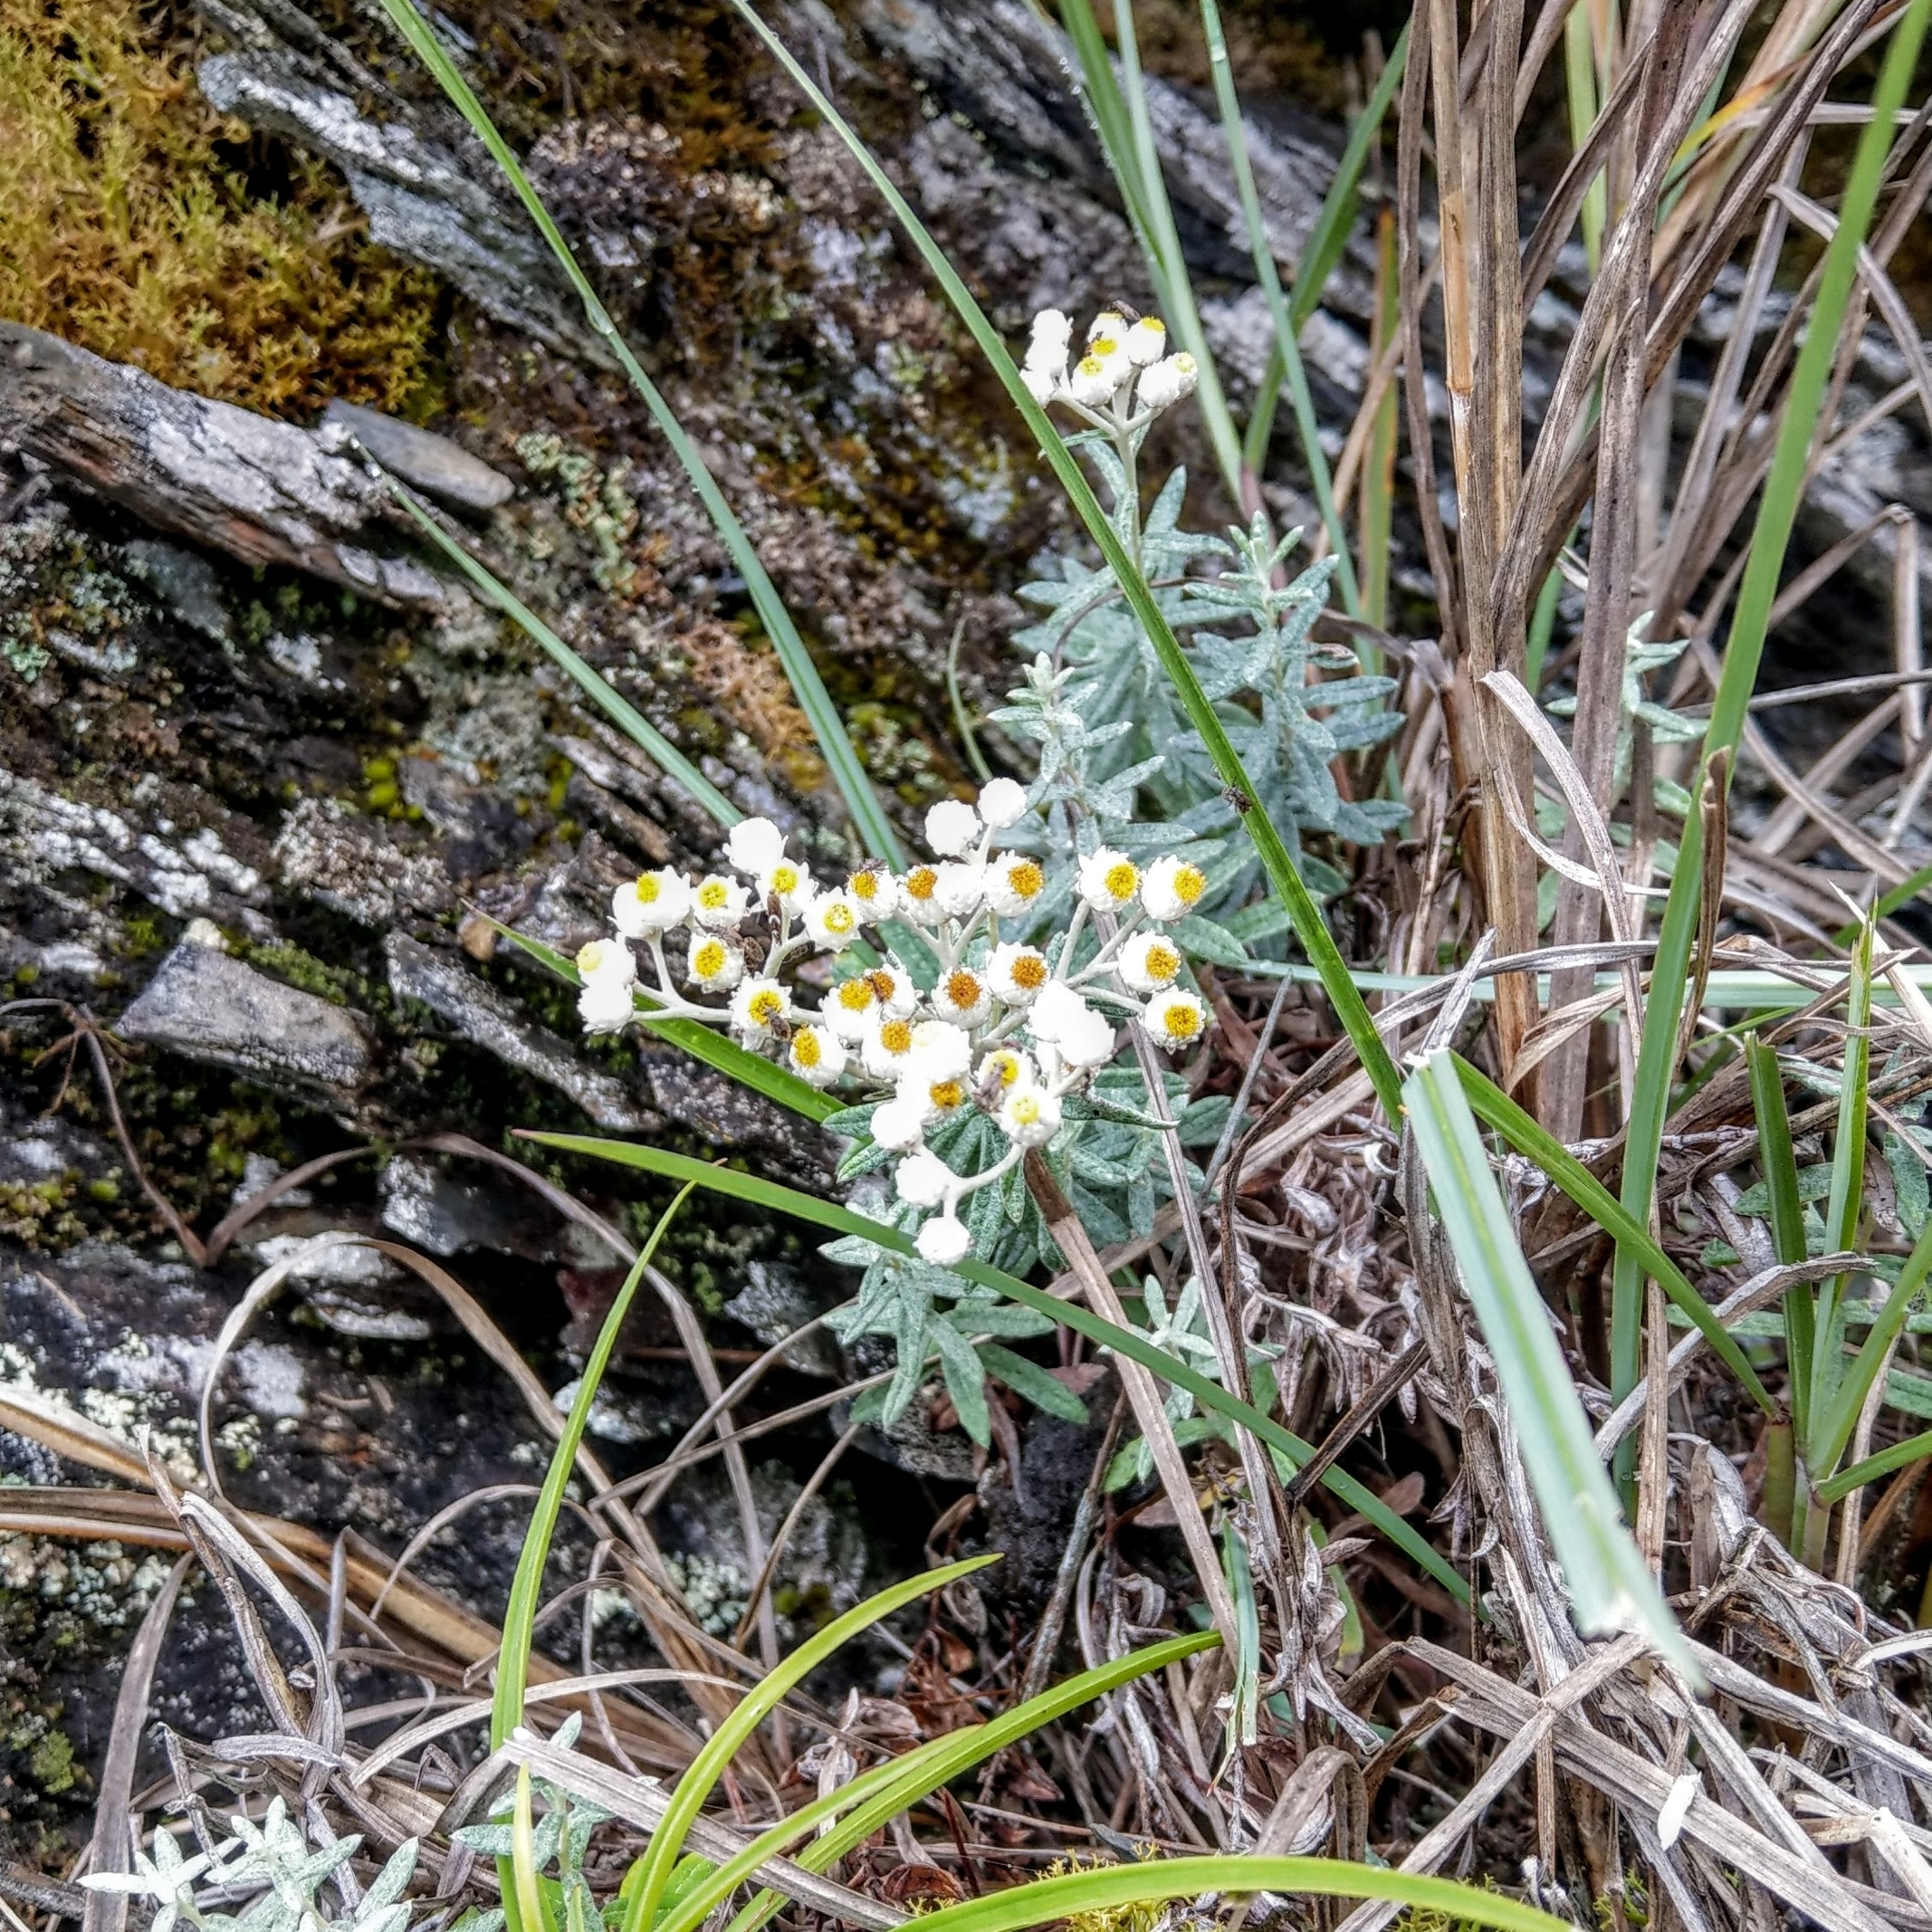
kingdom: Plantae
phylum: Tracheophyta
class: Magnoliopsida
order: Asterales
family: Asteraceae
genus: Anaphalis
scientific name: Anaphalis morrisonicola
